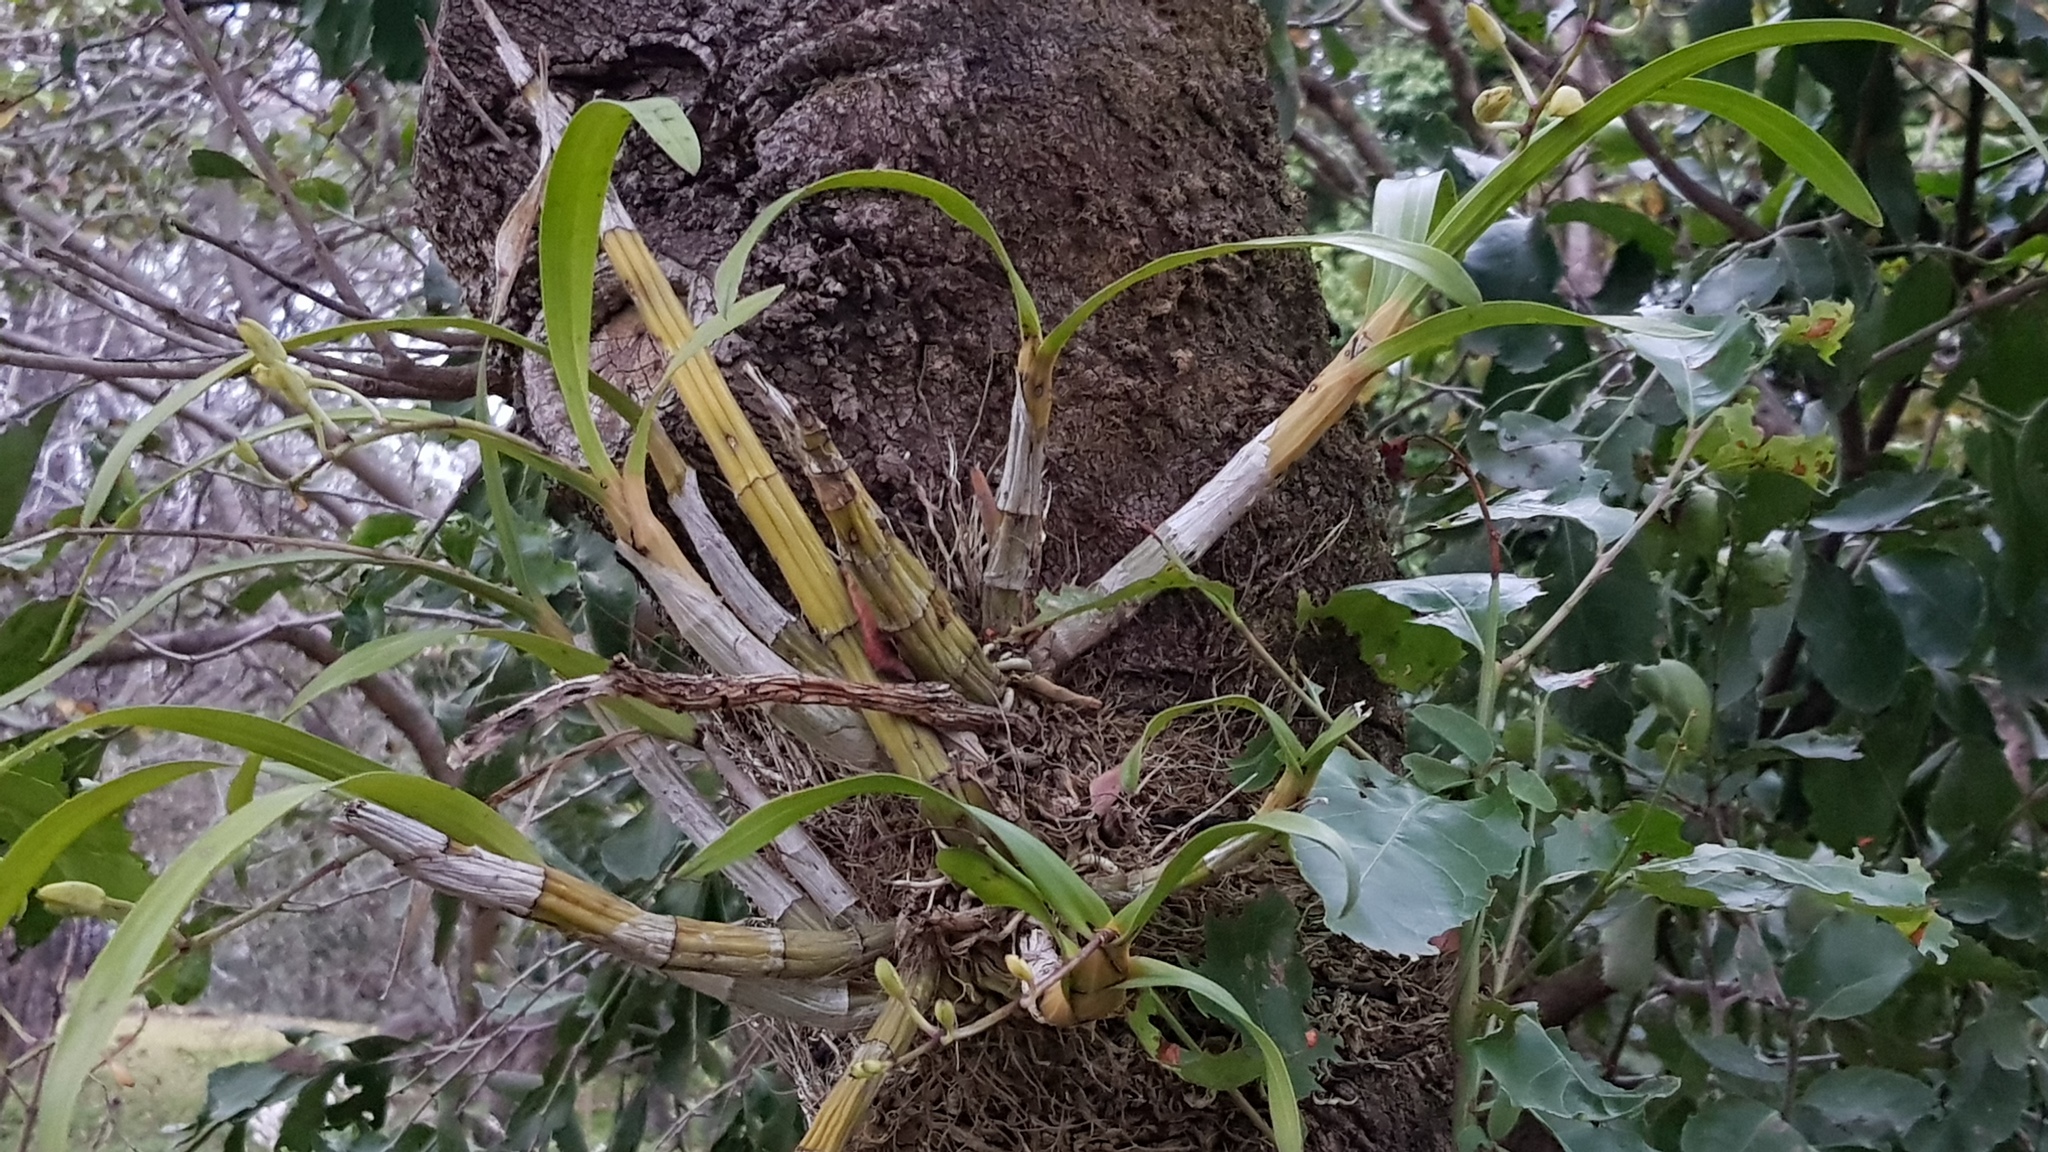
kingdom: Plantae
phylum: Tracheophyta
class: Liliopsida
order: Asparagales
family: Orchidaceae
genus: Ansellia
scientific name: Ansellia africana
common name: African ansellia
